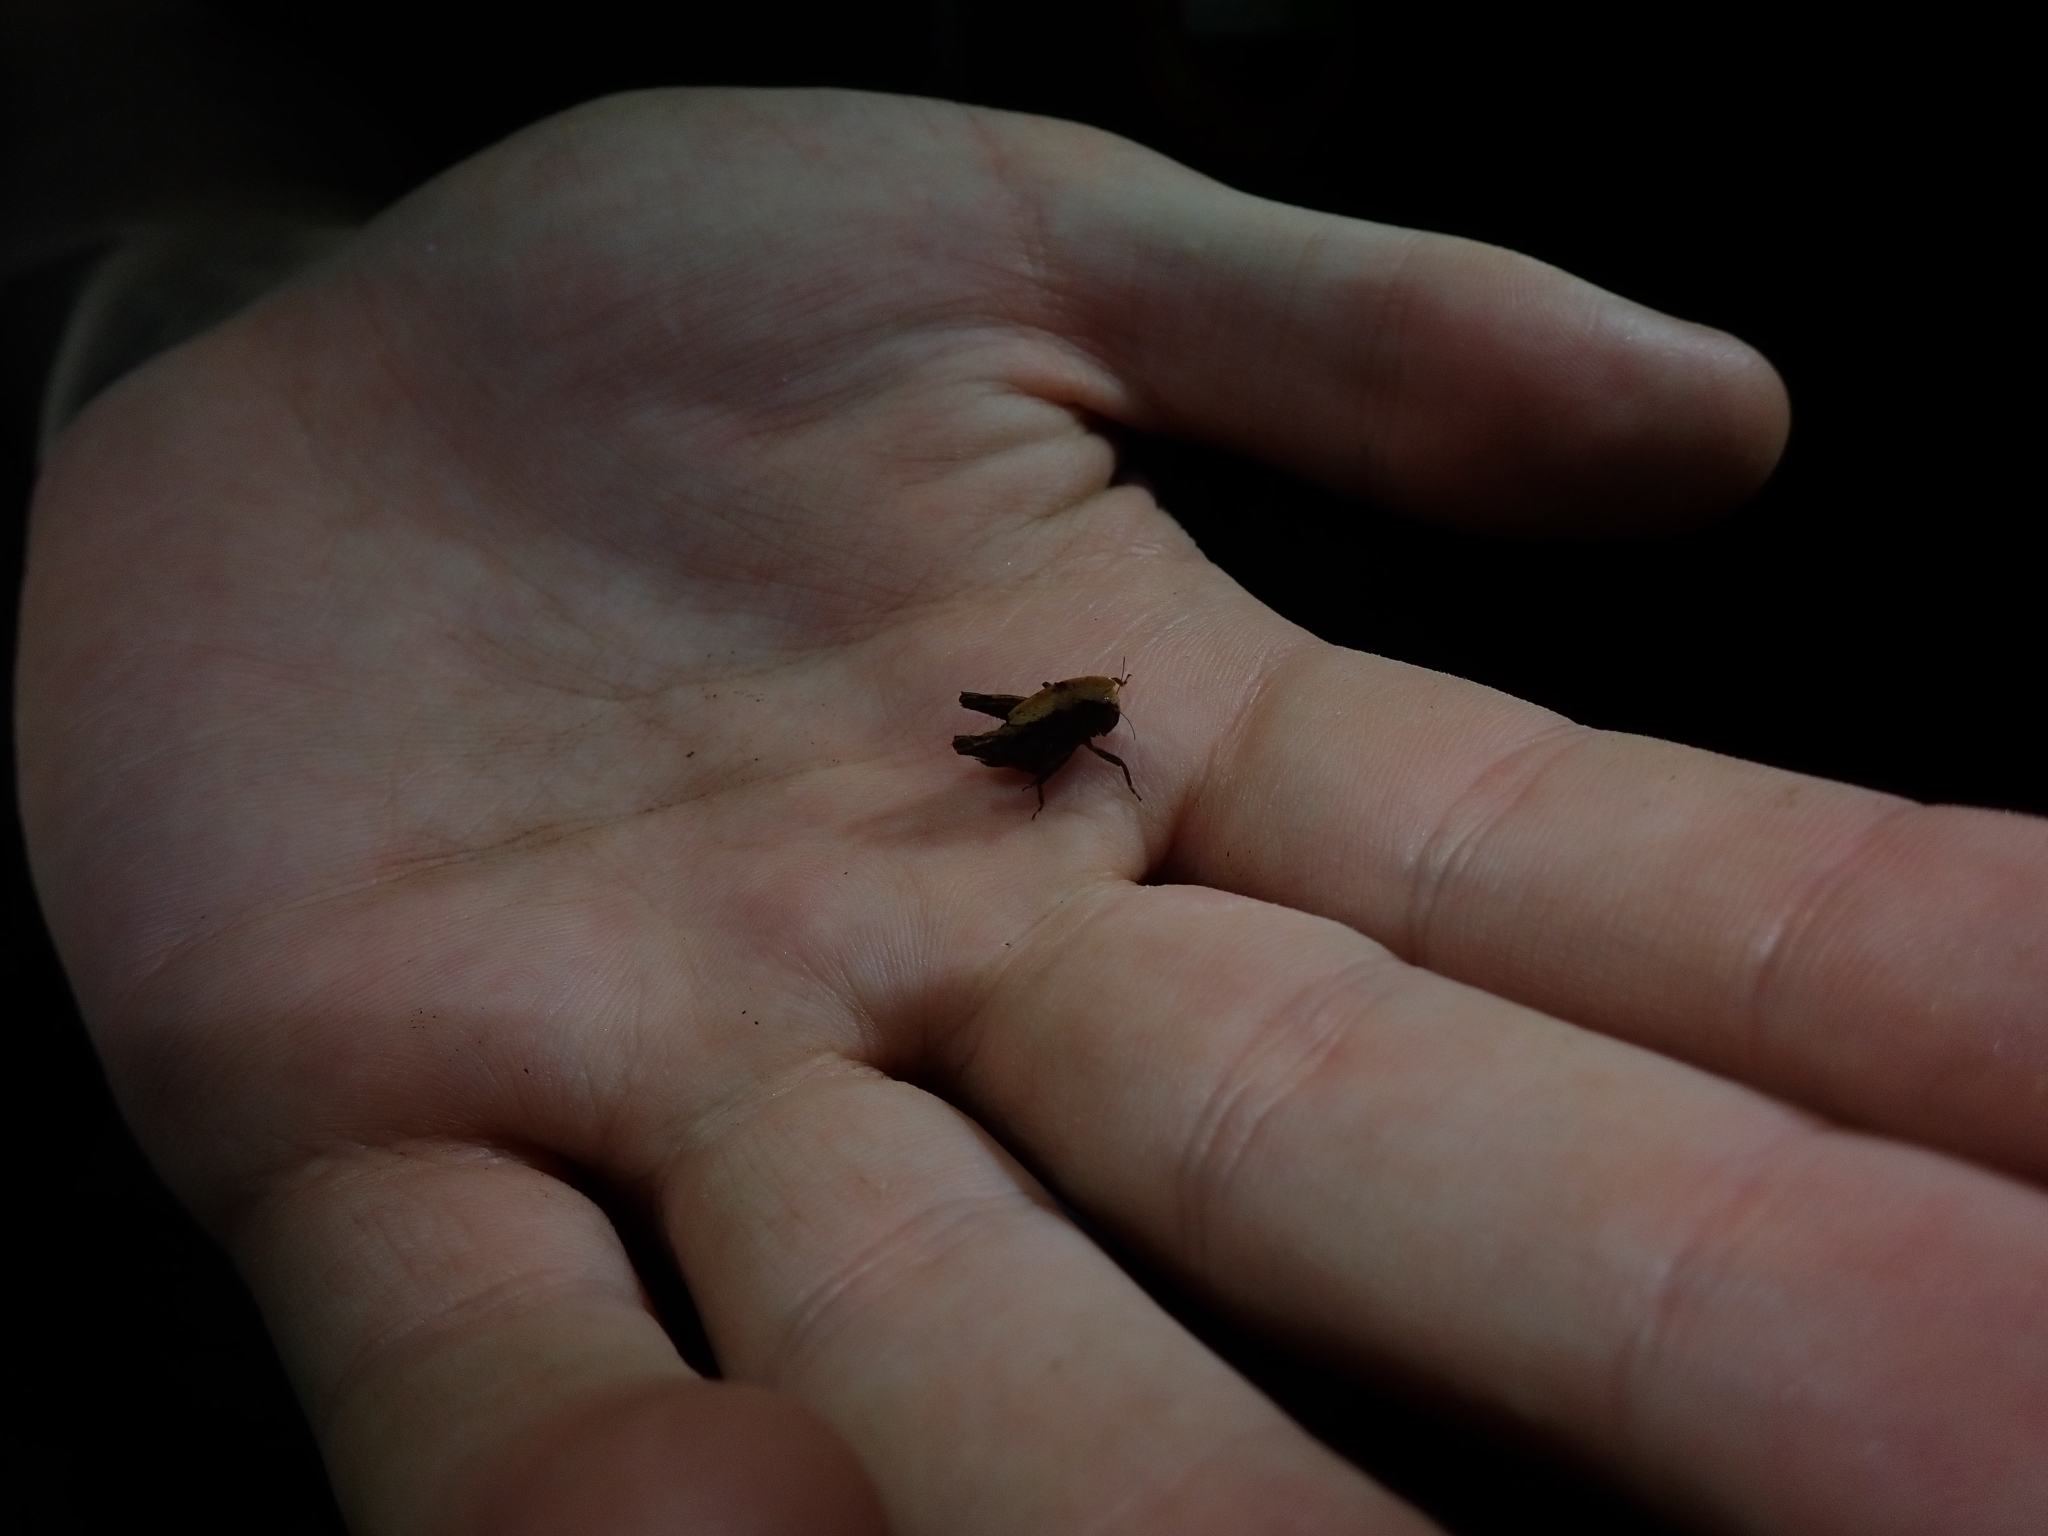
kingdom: Animalia
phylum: Arthropoda
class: Insecta
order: Orthoptera
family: Tetrigidae
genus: Selivinga
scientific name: Selivinga tribulata
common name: Tribulation helmed groundhopper
